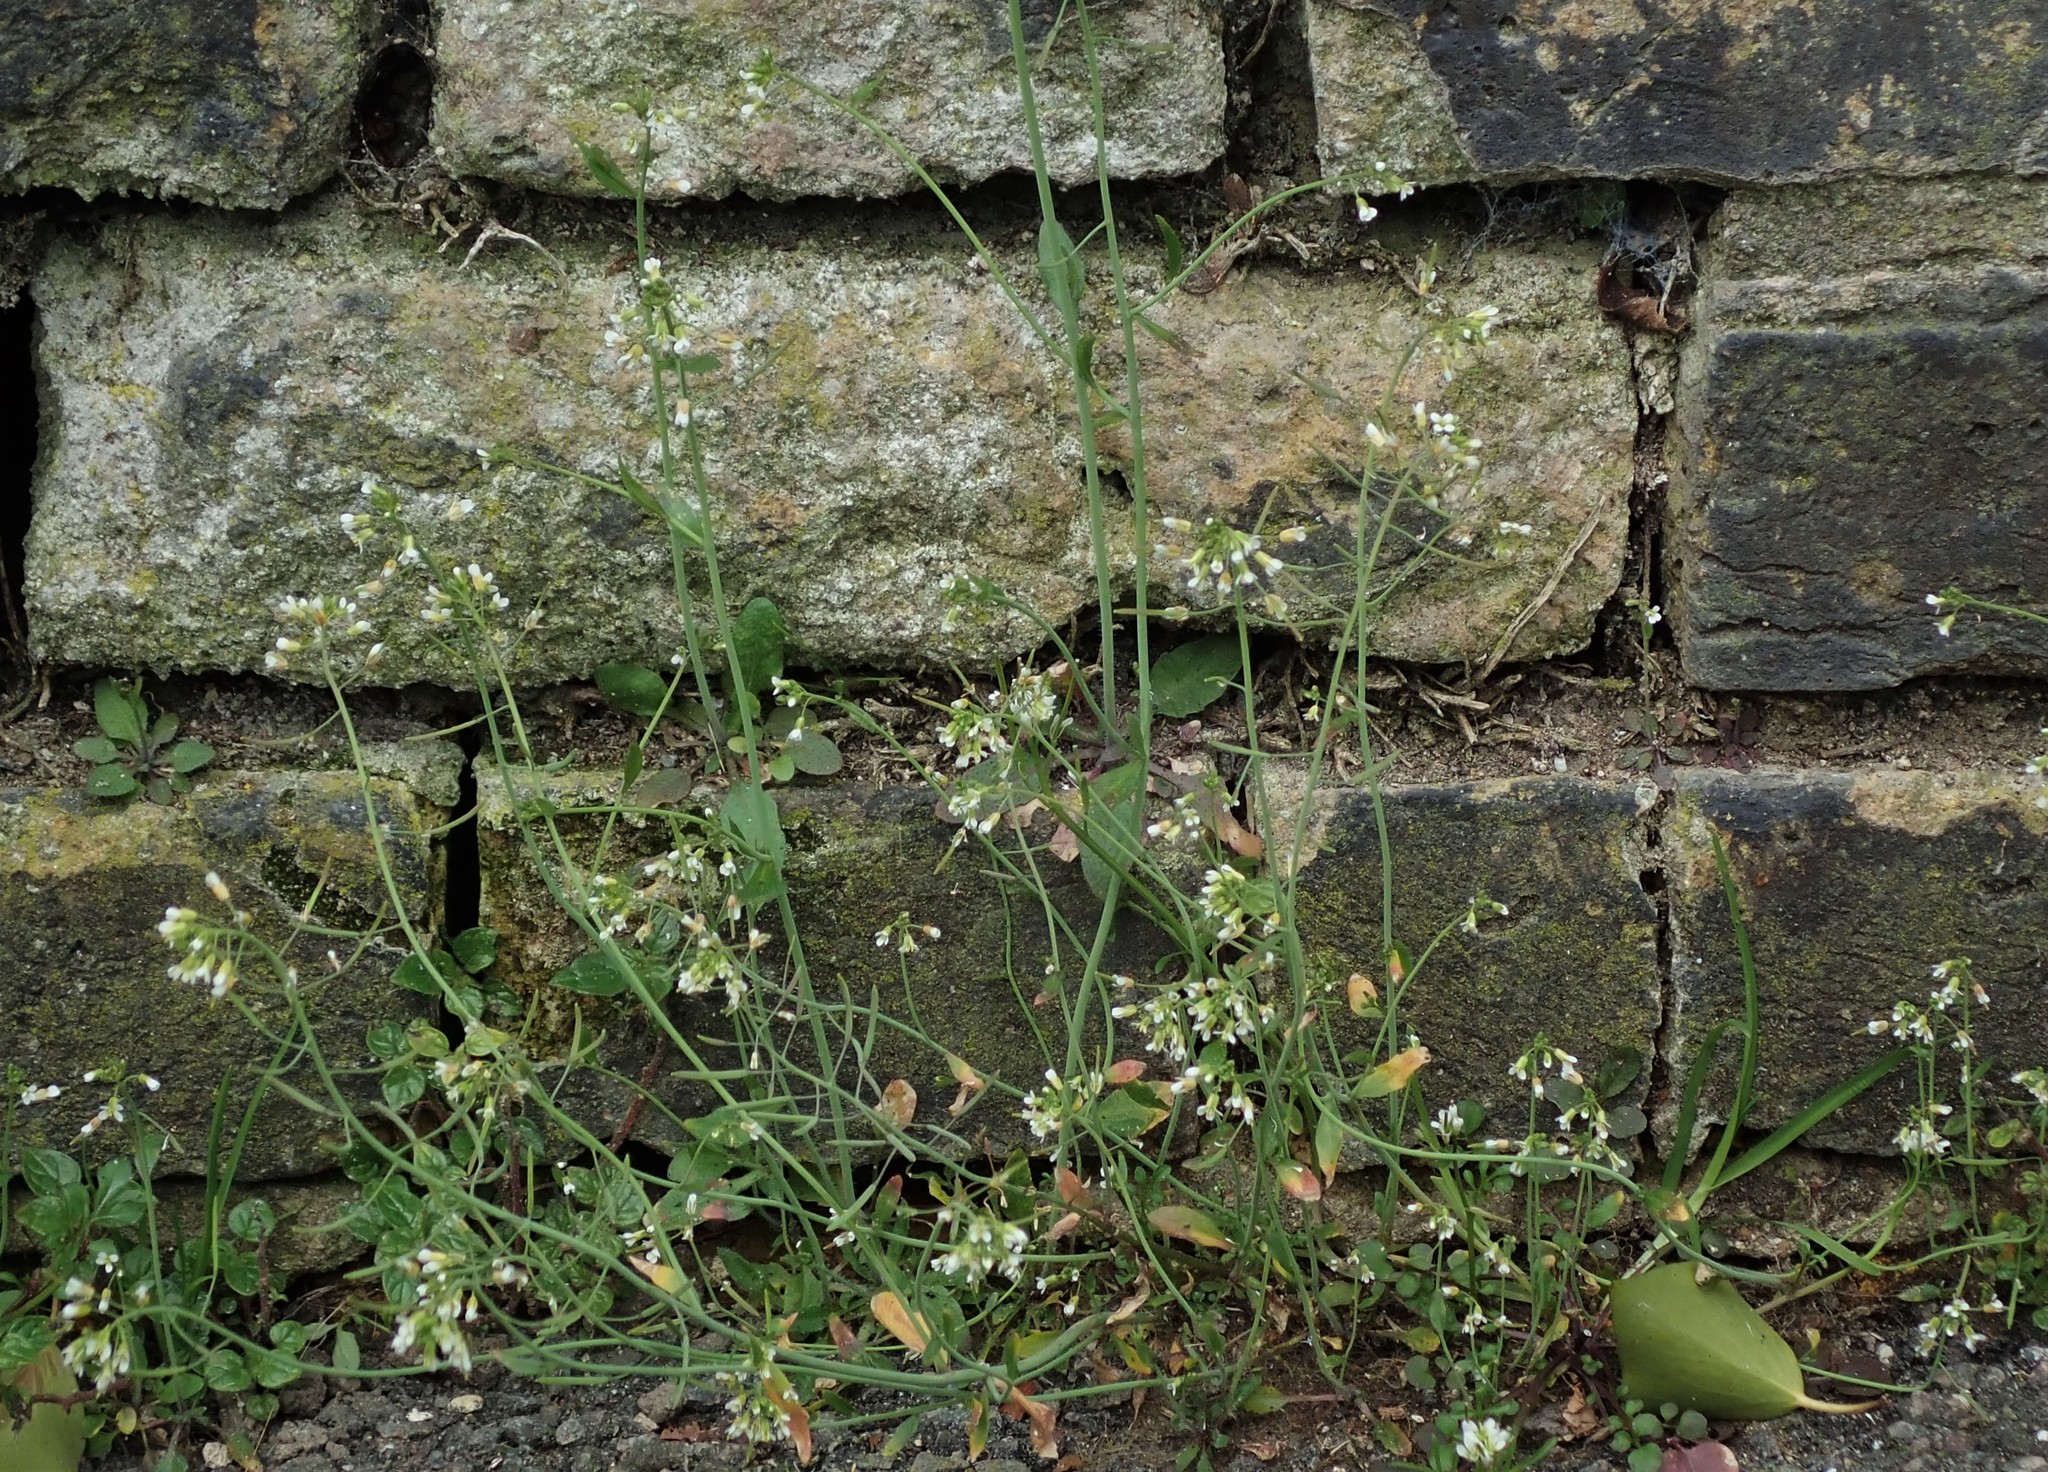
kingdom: Plantae
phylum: Tracheophyta
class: Magnoliopsida
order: Brassicales
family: Brassicaceae
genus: Arabidopsis
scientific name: Arabidopsis thaliana
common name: Thale cress
